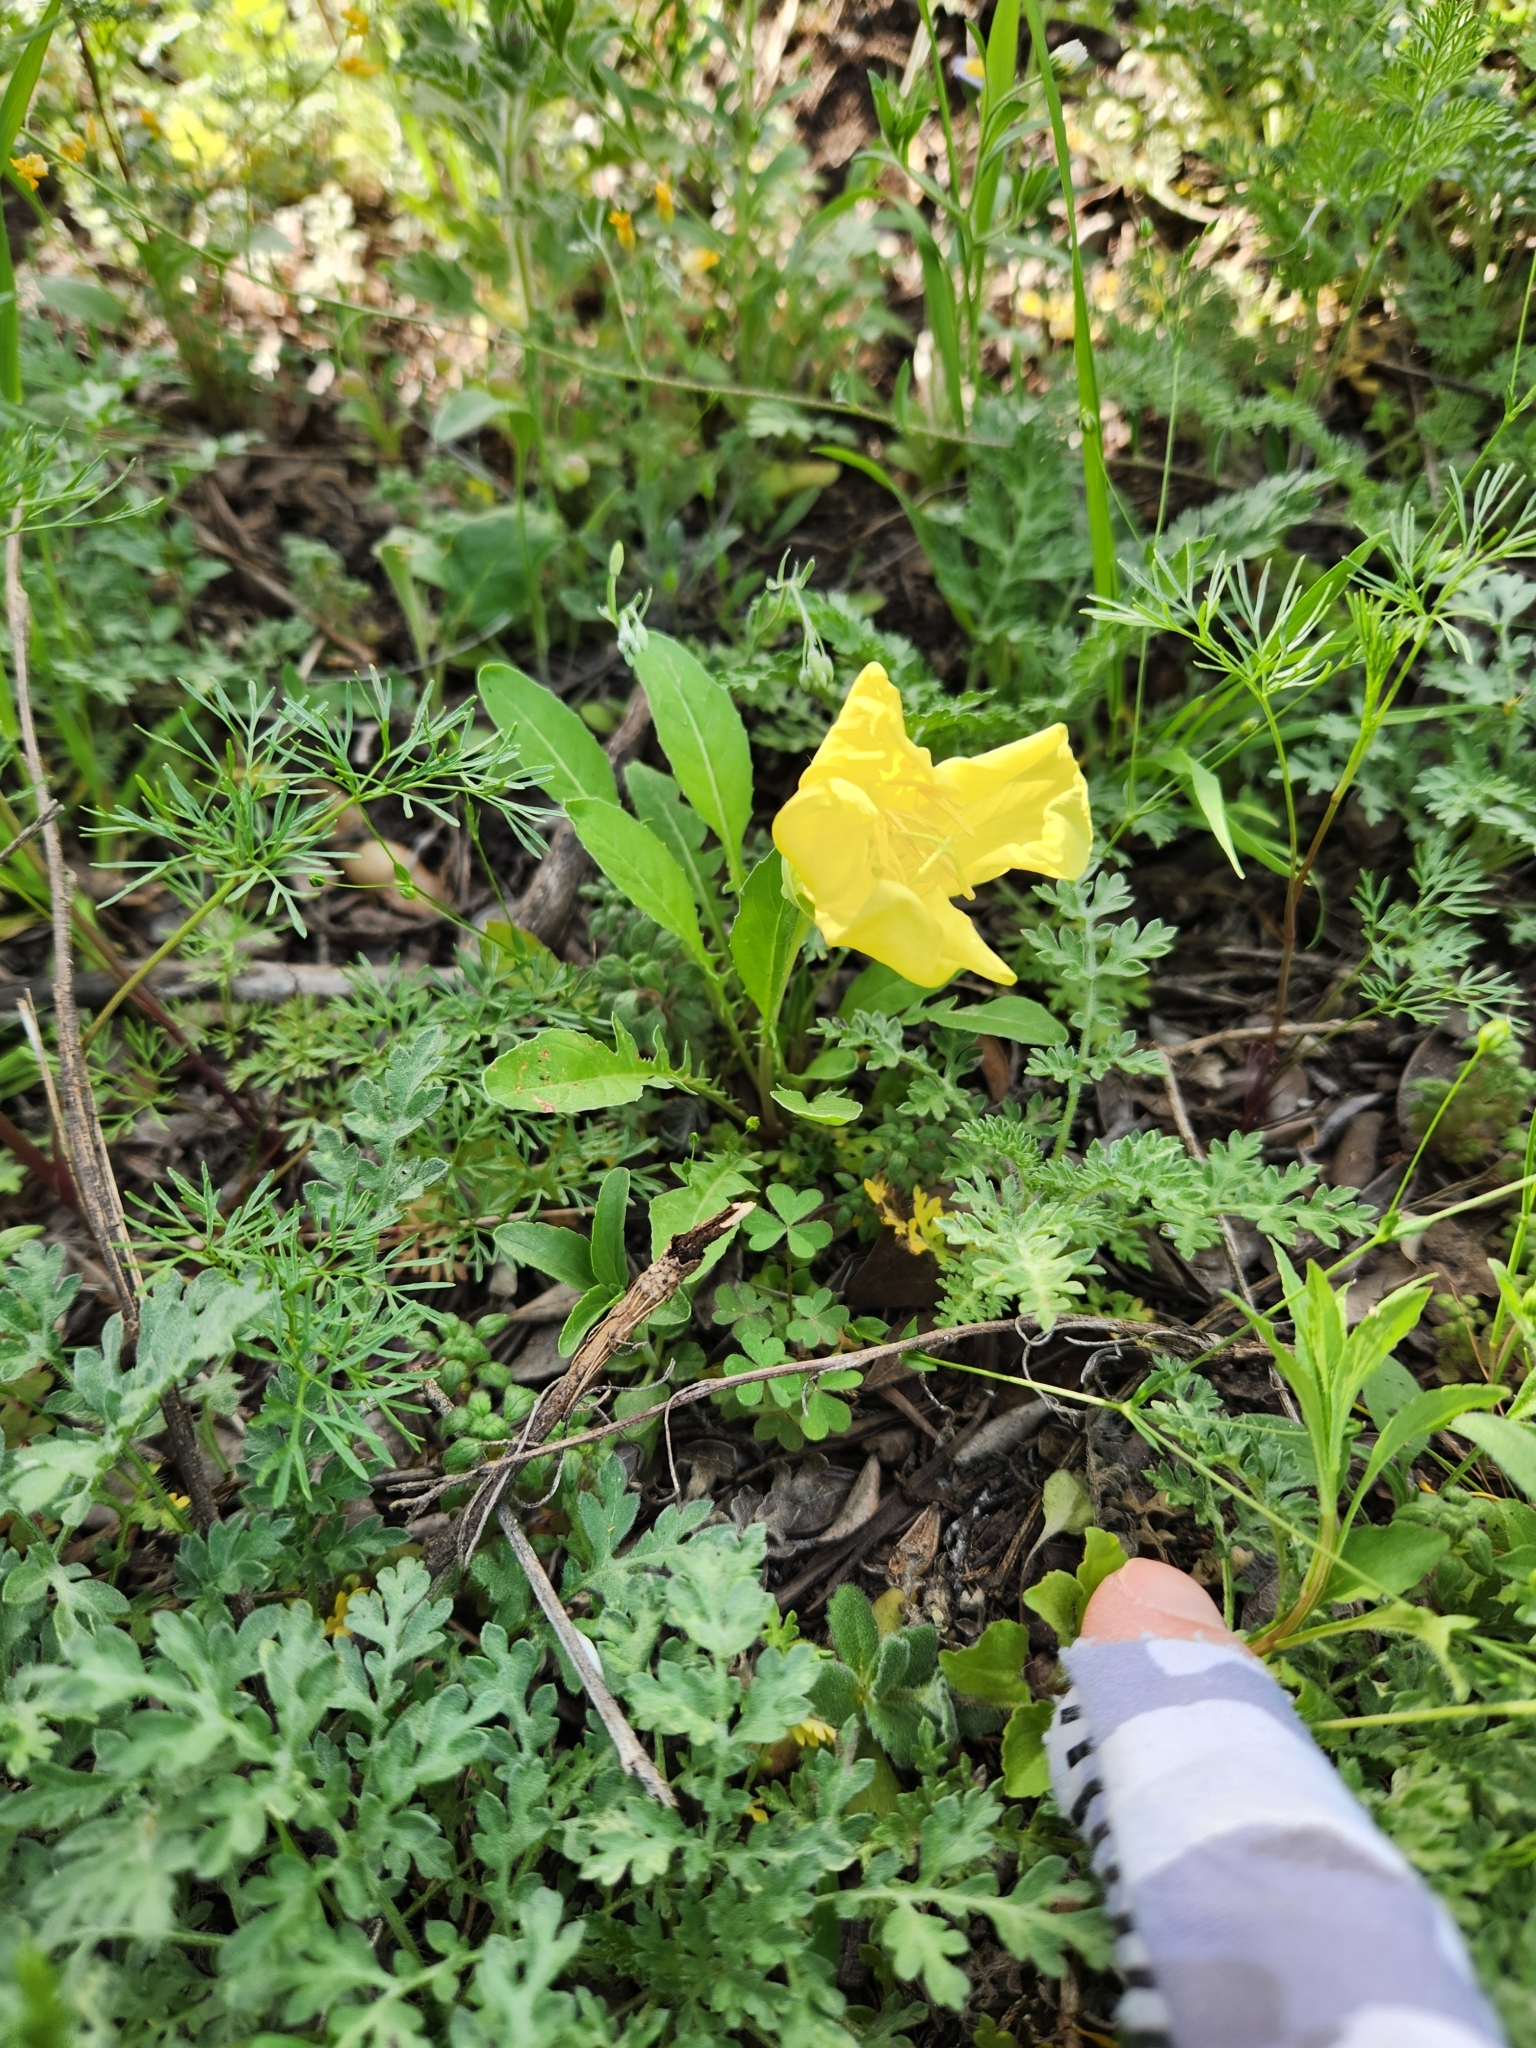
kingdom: Plantae
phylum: Tracheophyta
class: Magnoliopsida
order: Myrtales
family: Onagraceae
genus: Oenothera
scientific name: Oenothera triloba
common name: Sessile evening-primrose
